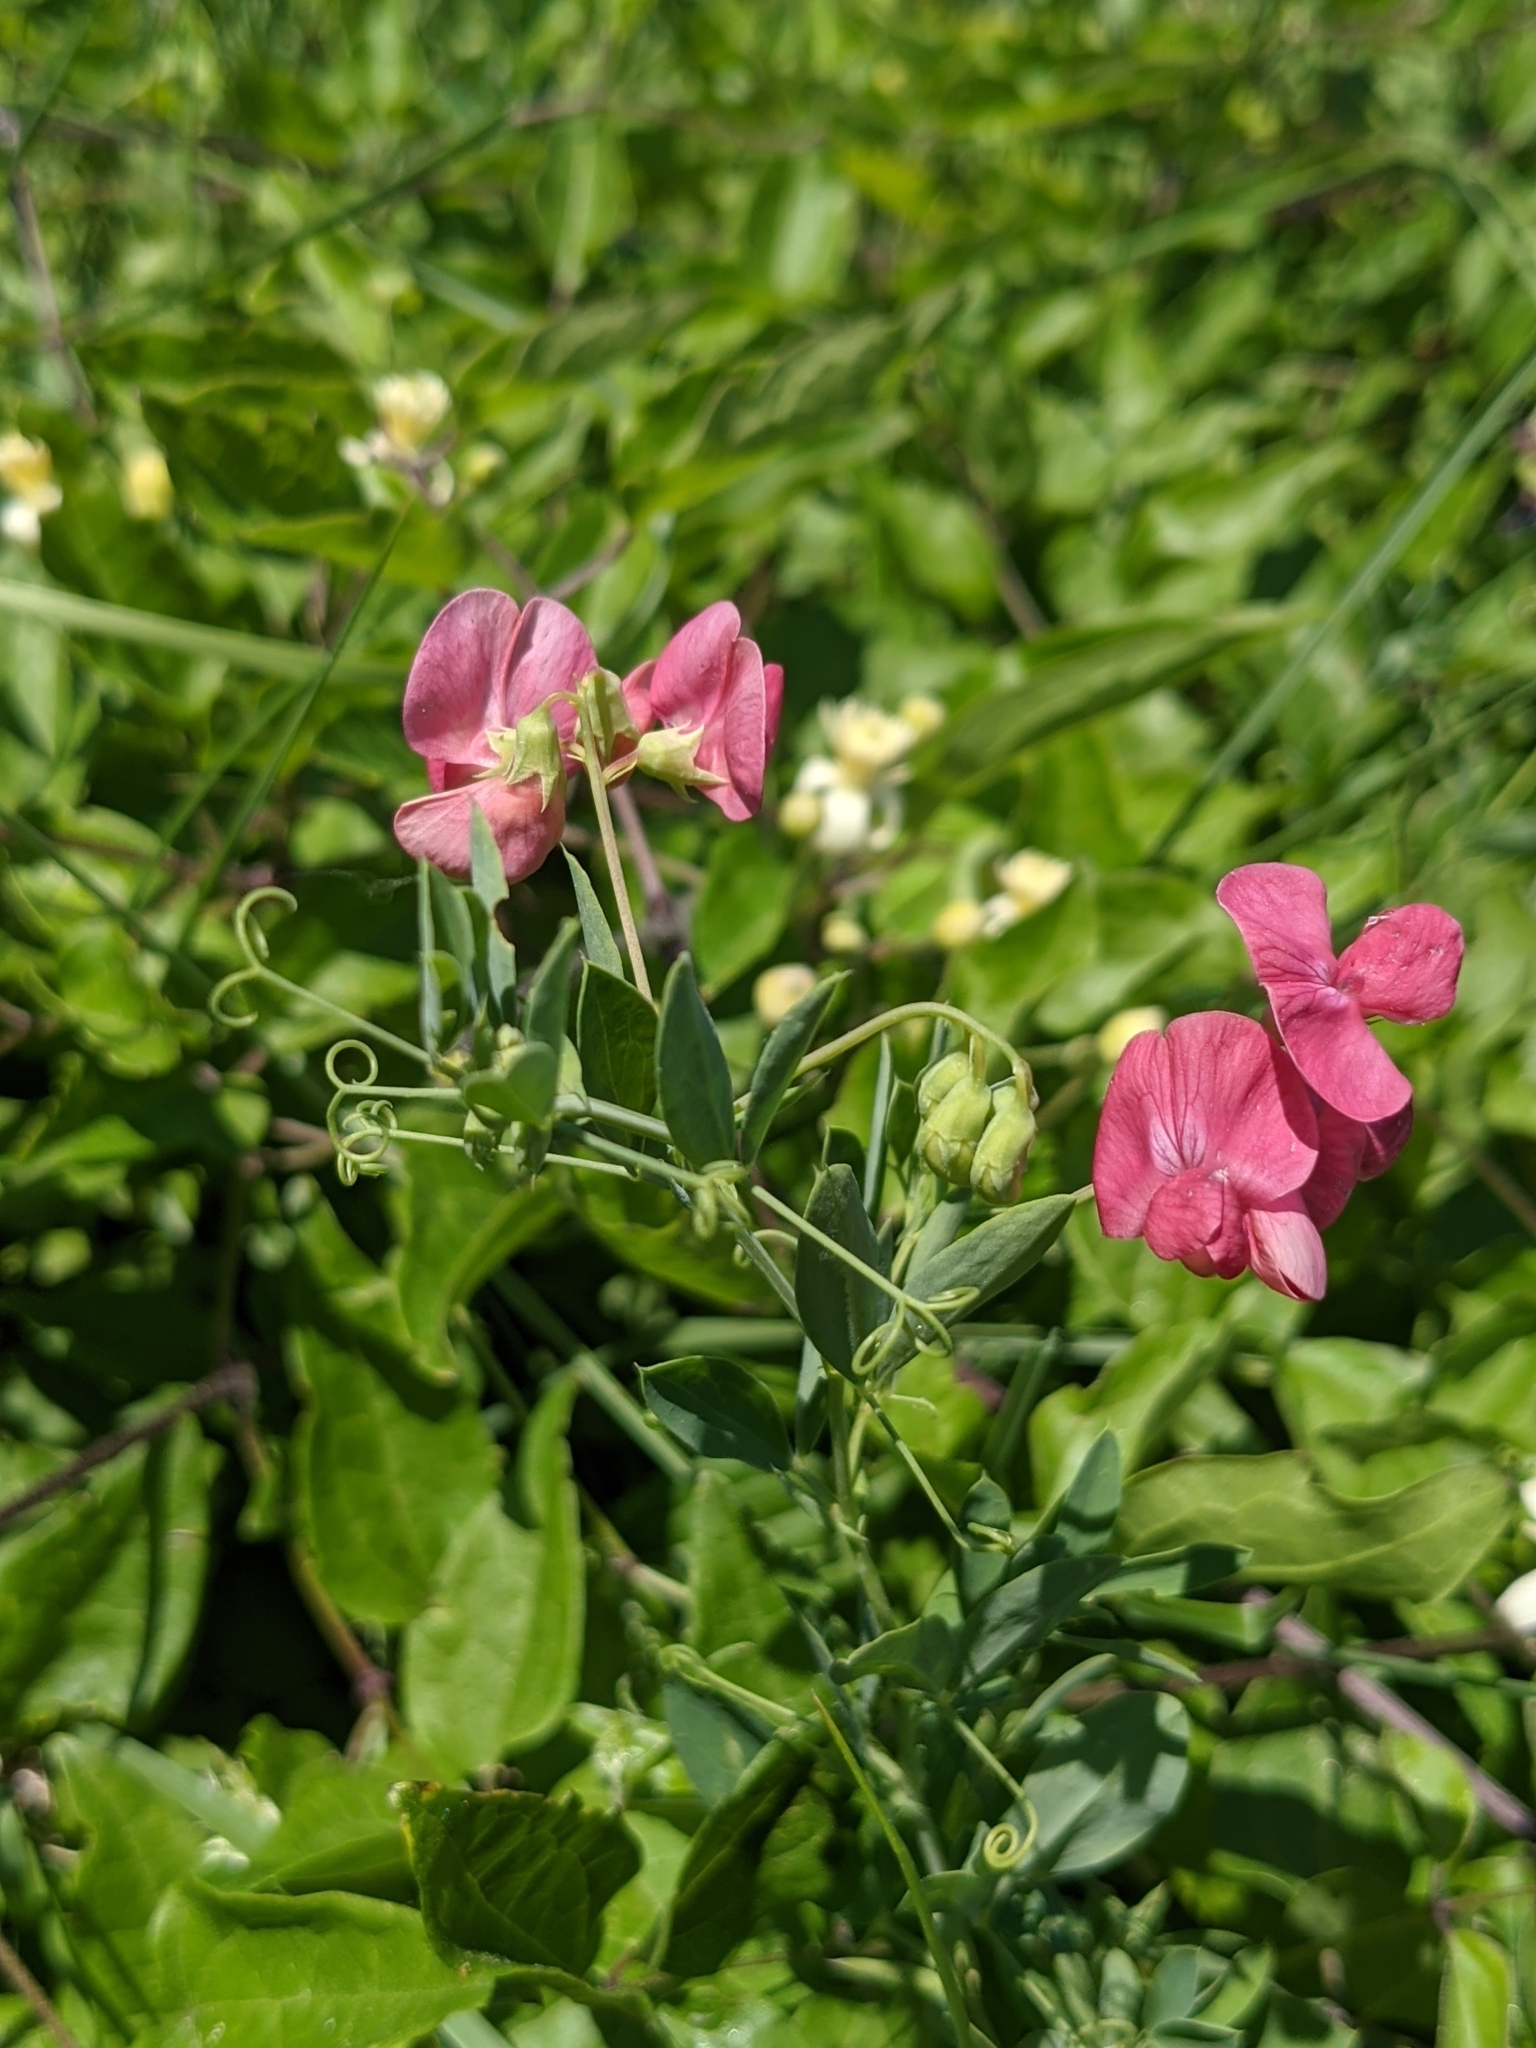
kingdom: Plantae
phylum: Tracheophyta
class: Magnoliopsida
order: Fabales
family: Fabaceae
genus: Lathyrus
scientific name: Lathyrus tuberosus
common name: Tuberous pea
